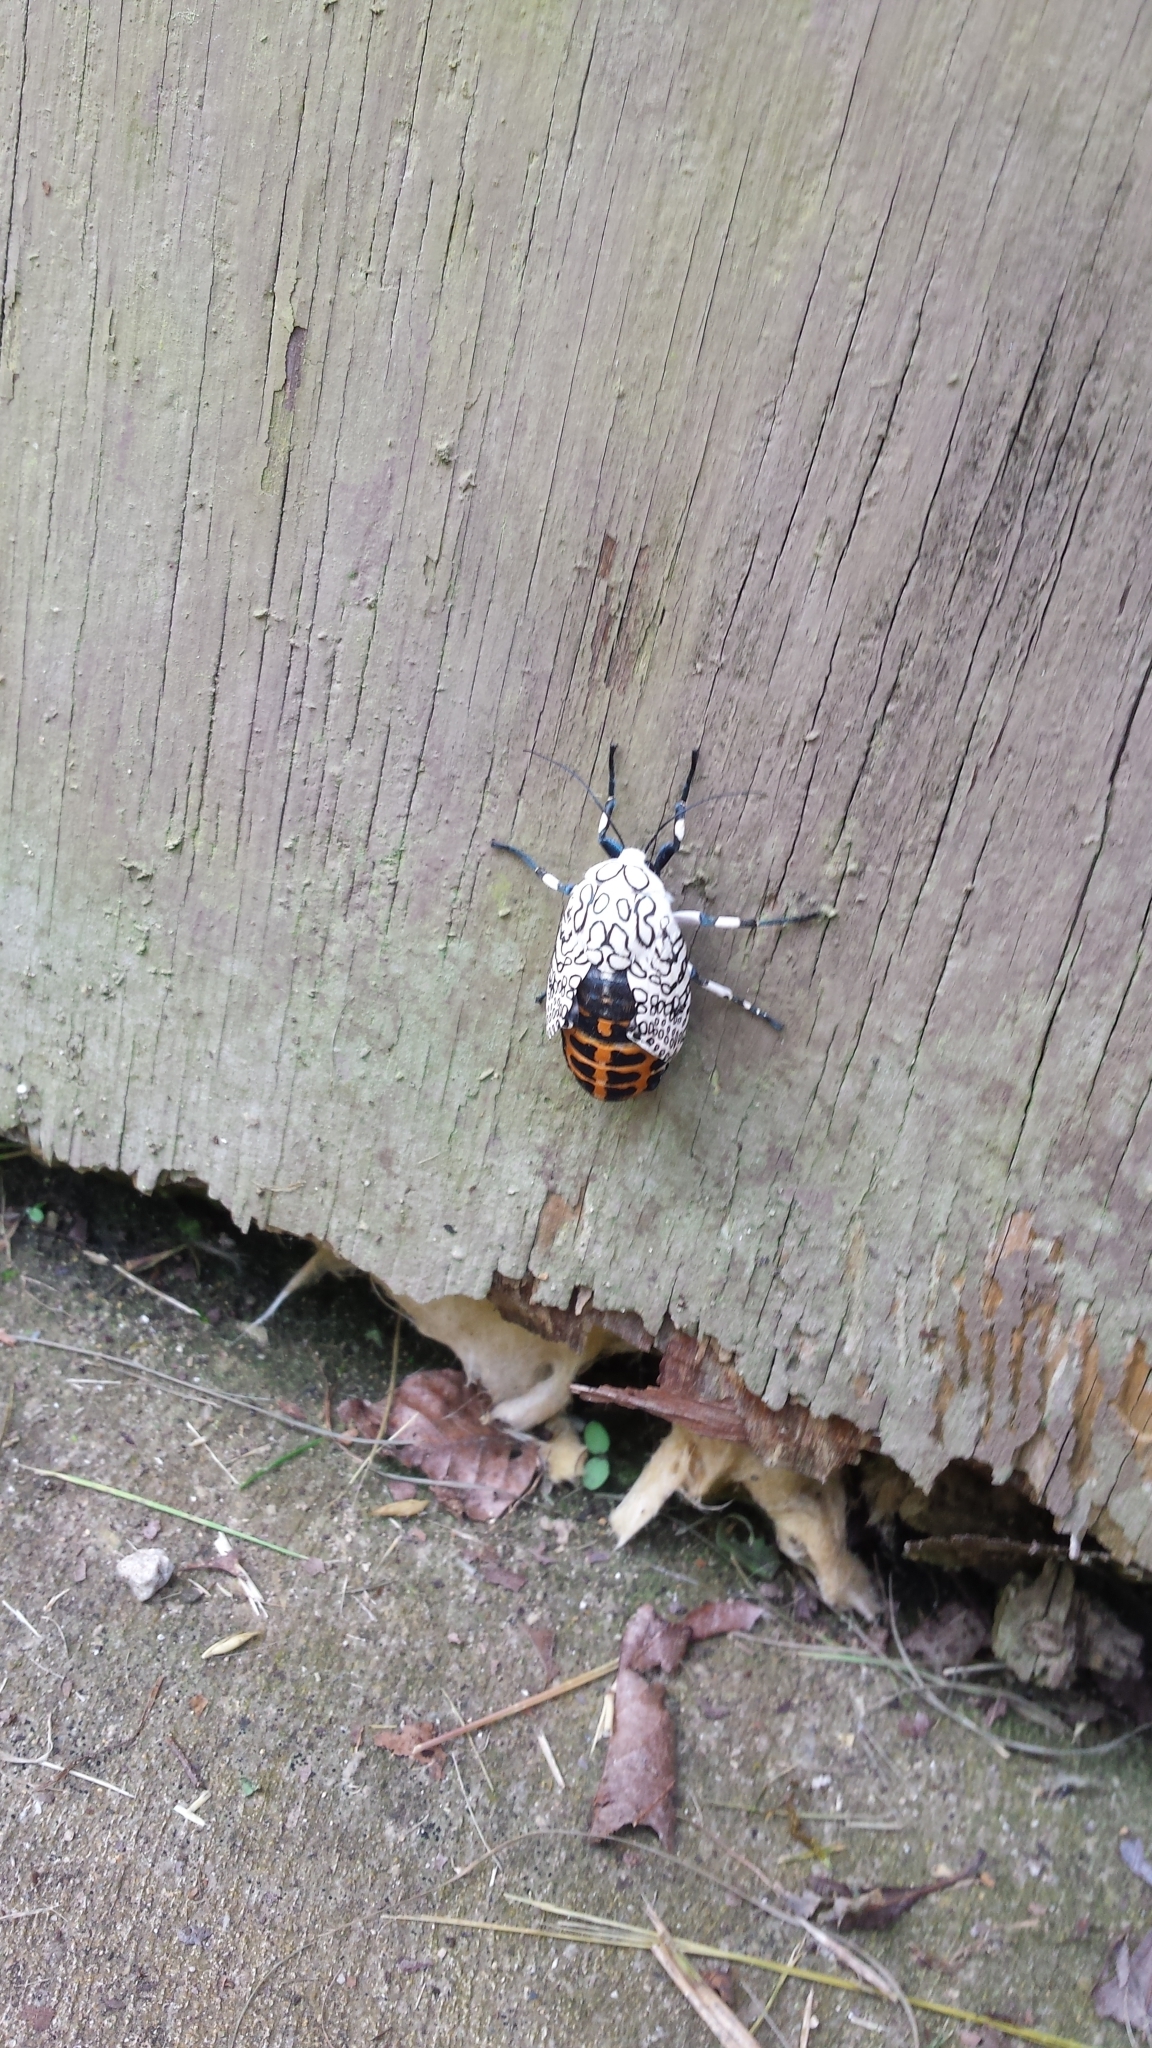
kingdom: Animalia
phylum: Arthropoda
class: Insecta
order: Lepidoptera
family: Erebidae
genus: Hypercompe
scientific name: Hypercompe scribonia
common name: Giant leopard moth
